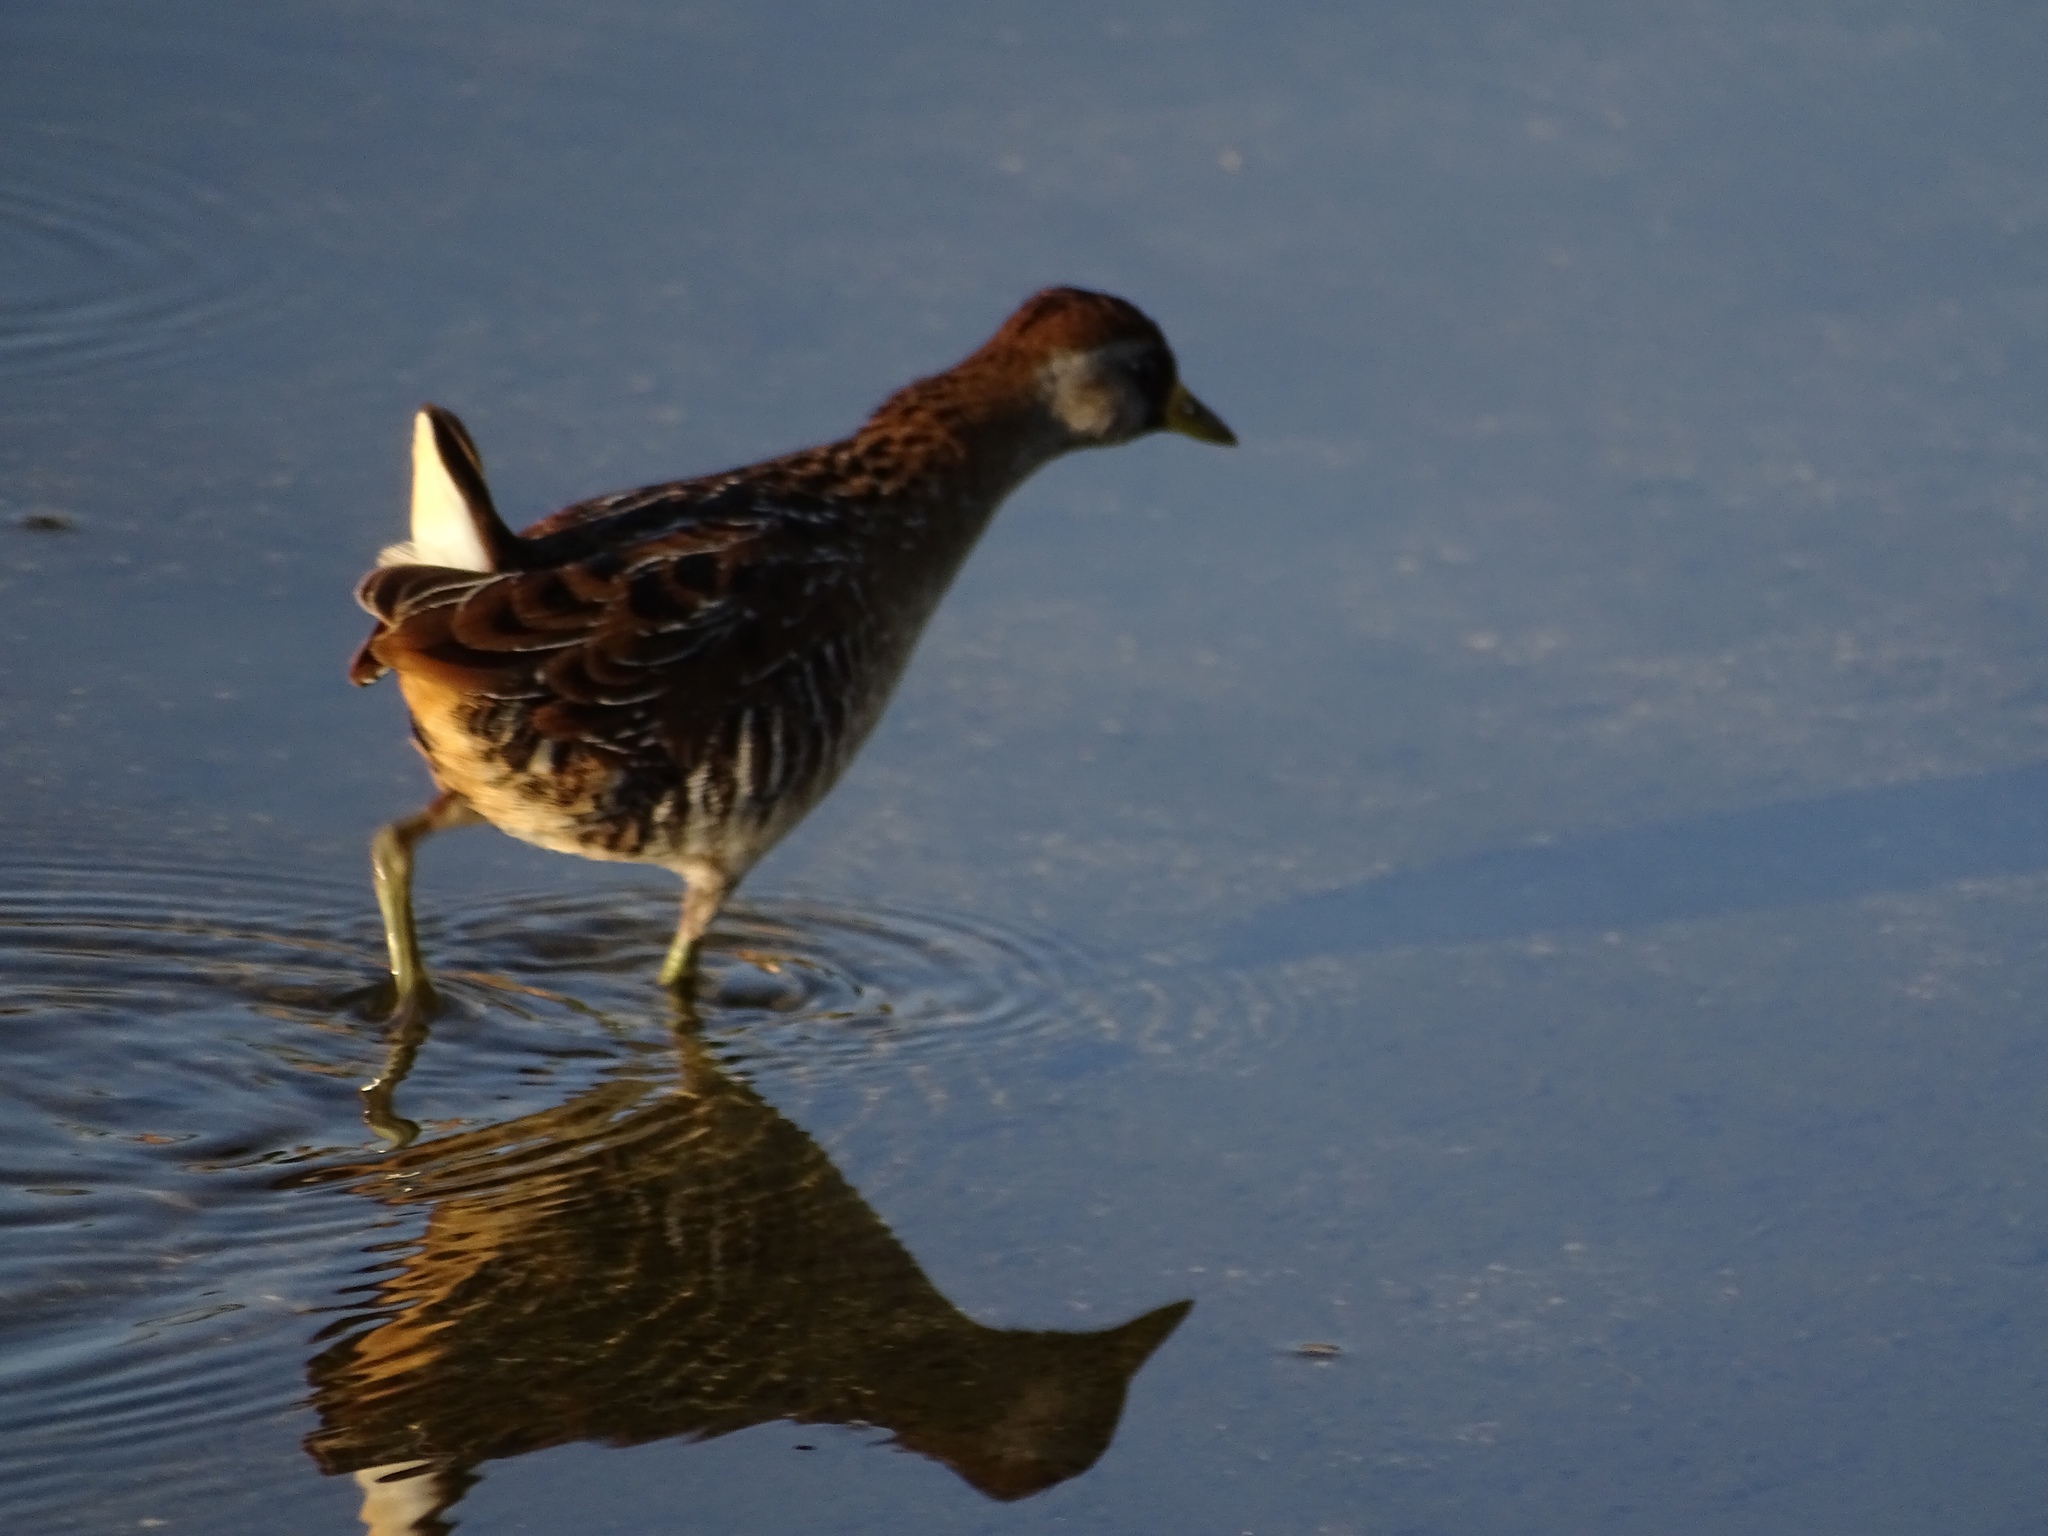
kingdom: Animalia
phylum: Chordata
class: Aves
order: Gruiformes
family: Rallidae
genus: Porzana
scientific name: Porzana carolina
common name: Sora
